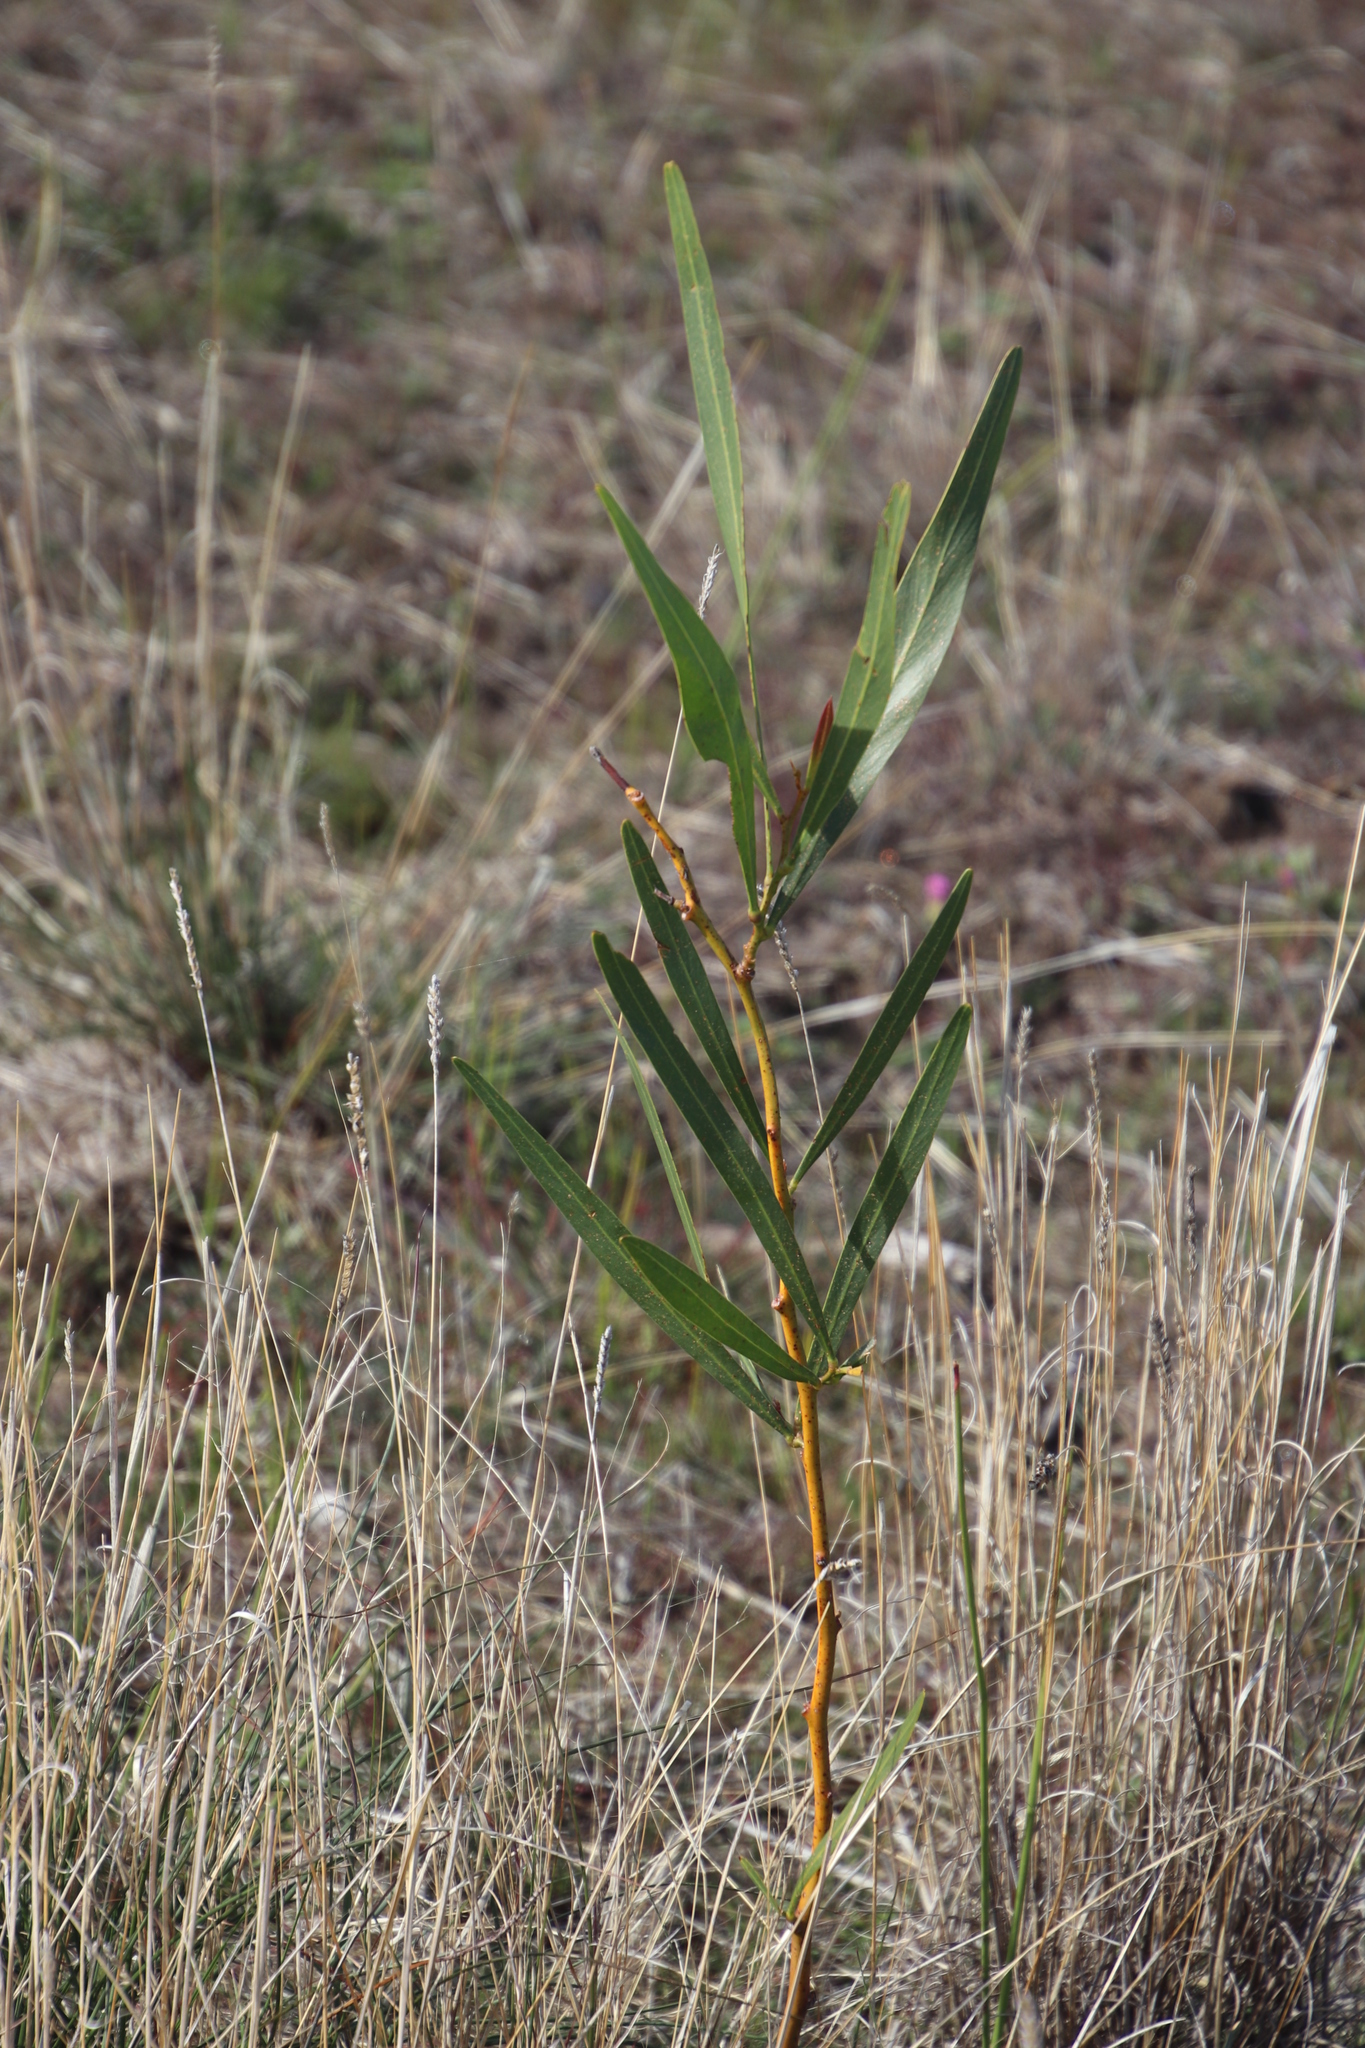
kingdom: Plantae
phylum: Tracheophyta
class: Magnoliopsida
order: Fabales
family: Fabaceae
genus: Acacia
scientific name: Acacia saligna
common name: Orange wattle
